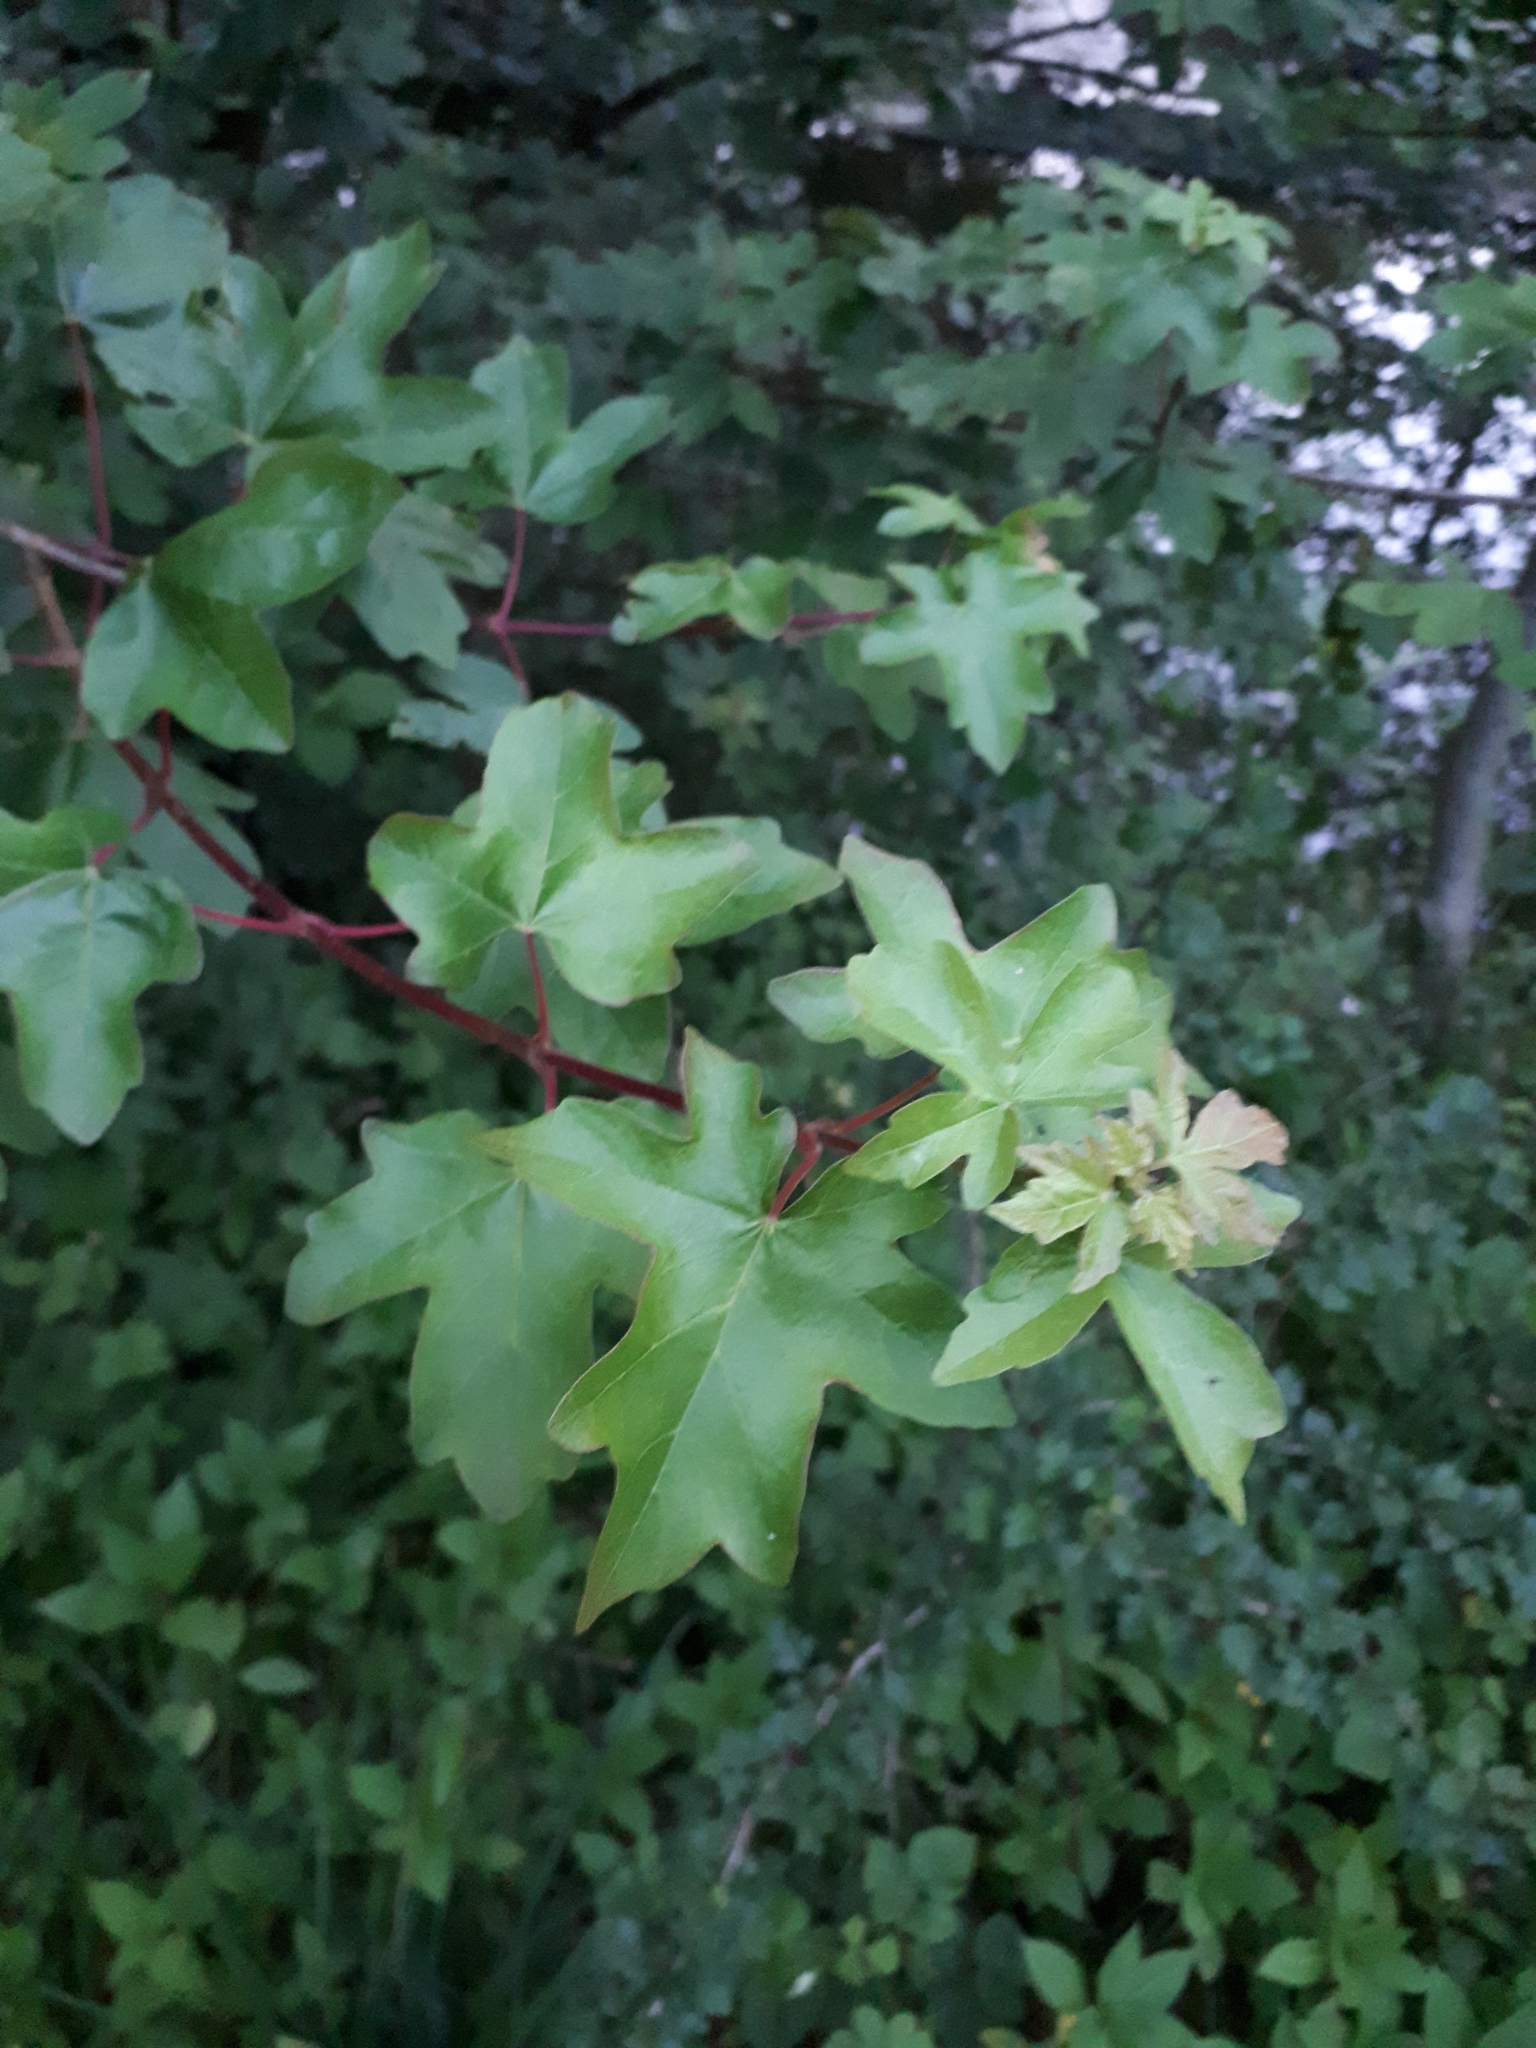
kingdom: Plantae
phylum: Tracheophyta
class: Magnoliopsida
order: Sapindales
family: Sapindaceae
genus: Acer
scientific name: Acer campestre
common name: Field maple
